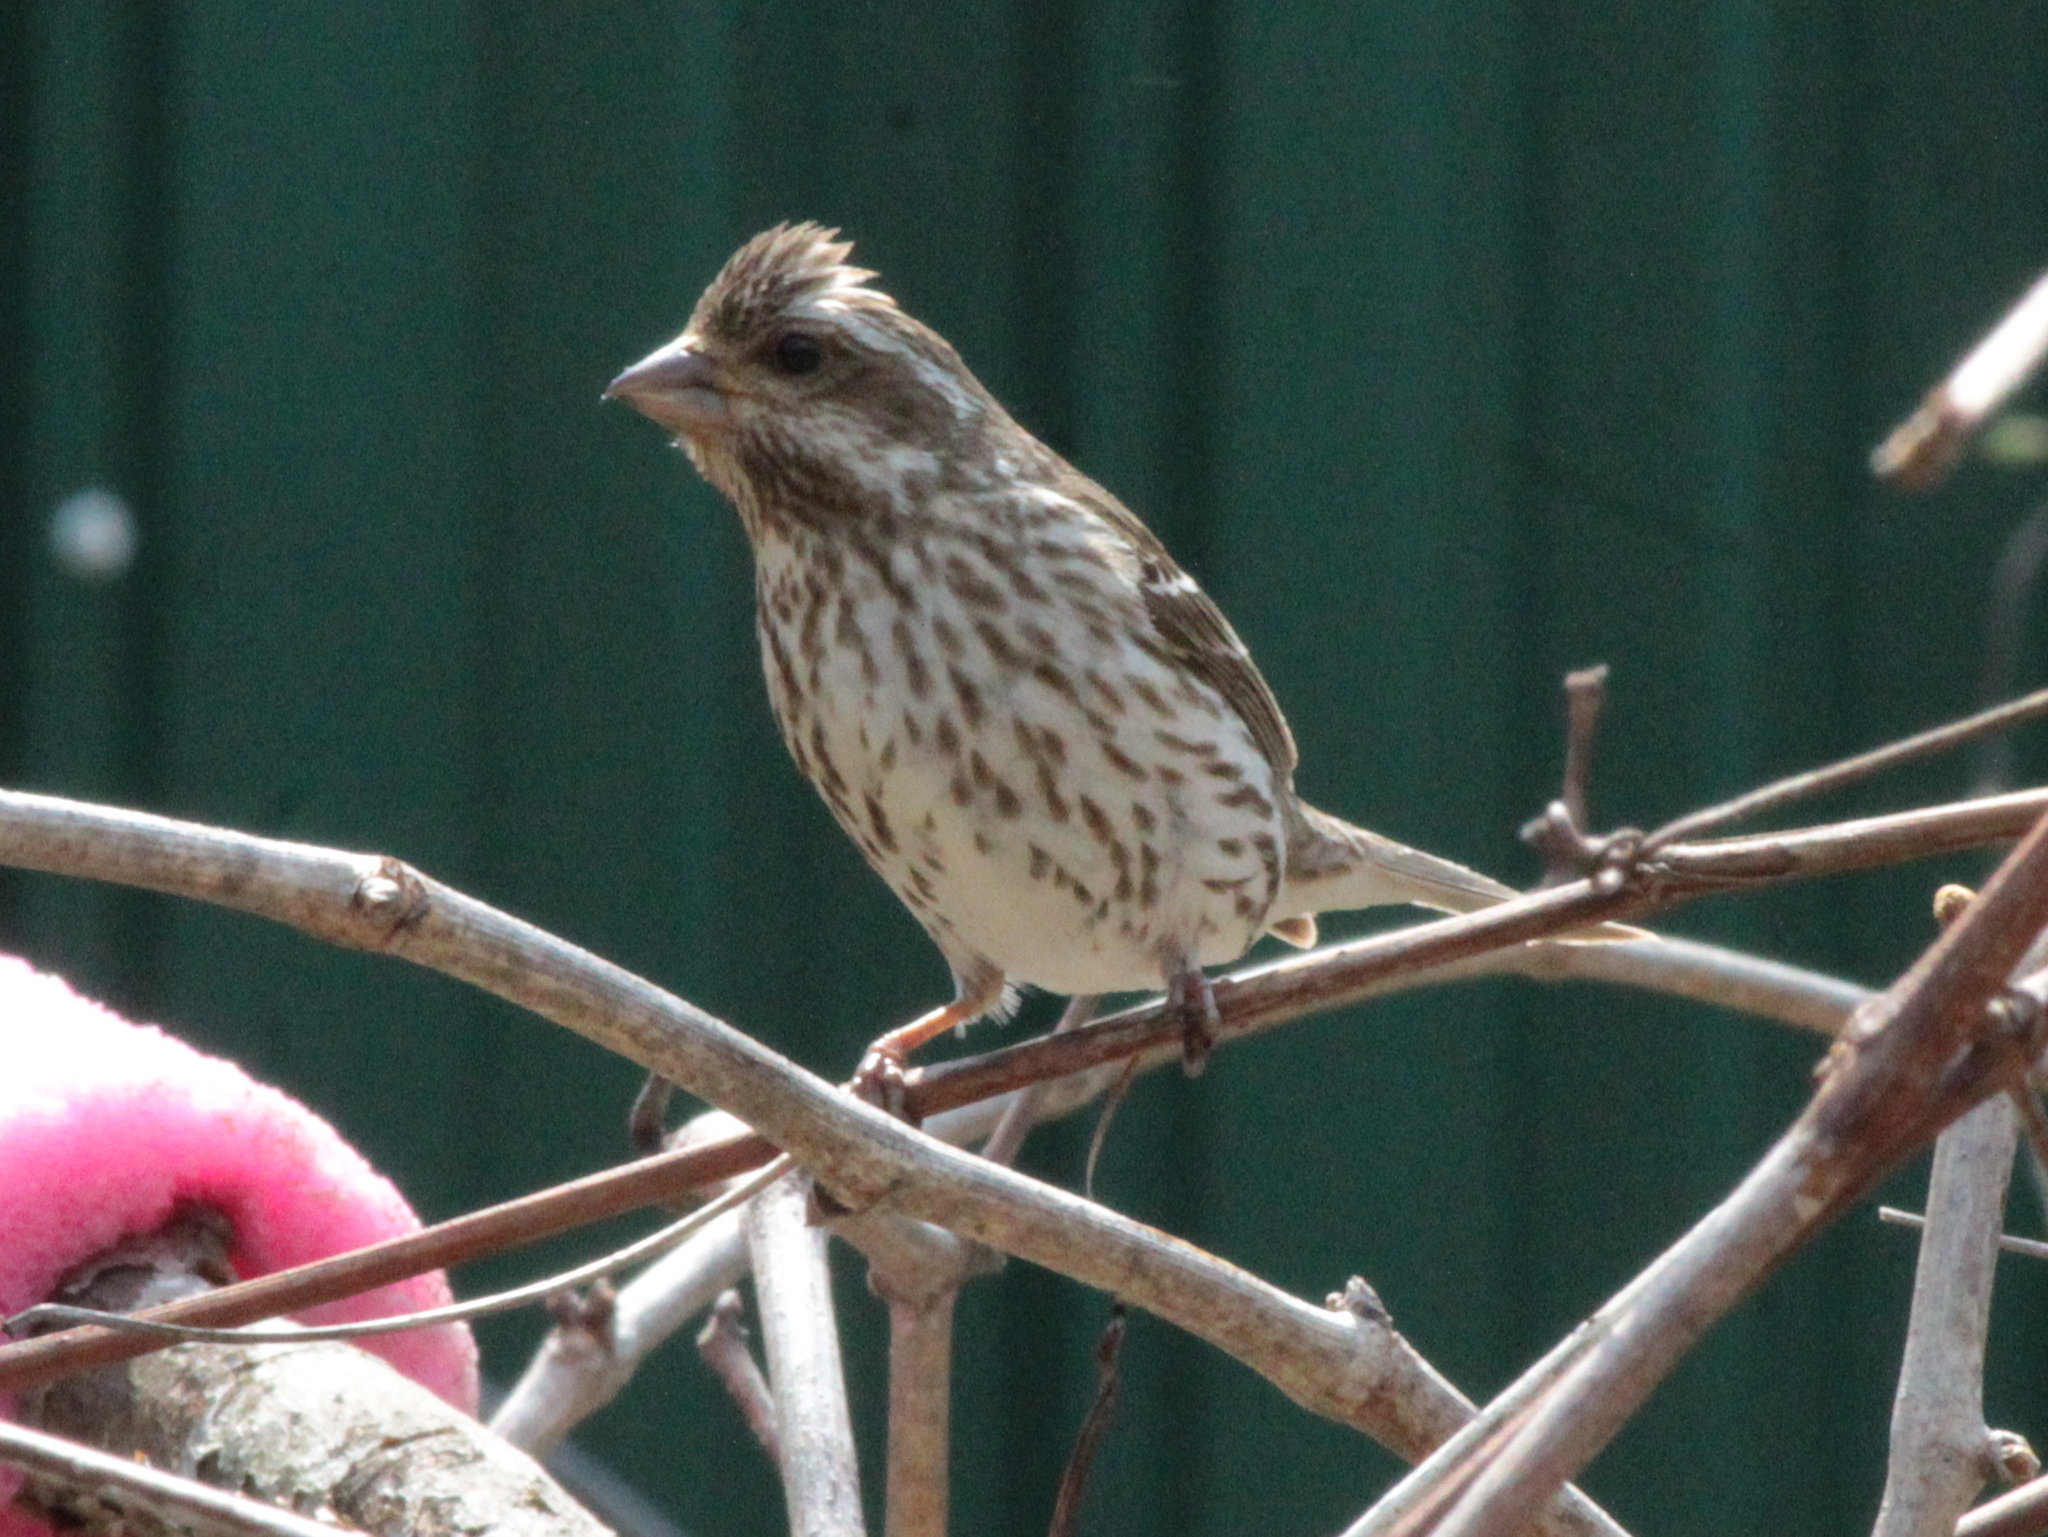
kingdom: Animalia
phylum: Chordata
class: Aves
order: Passeriformes
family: Fringillidae
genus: Haemorhous
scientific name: Haemorhous purpureus
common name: Purple finch
